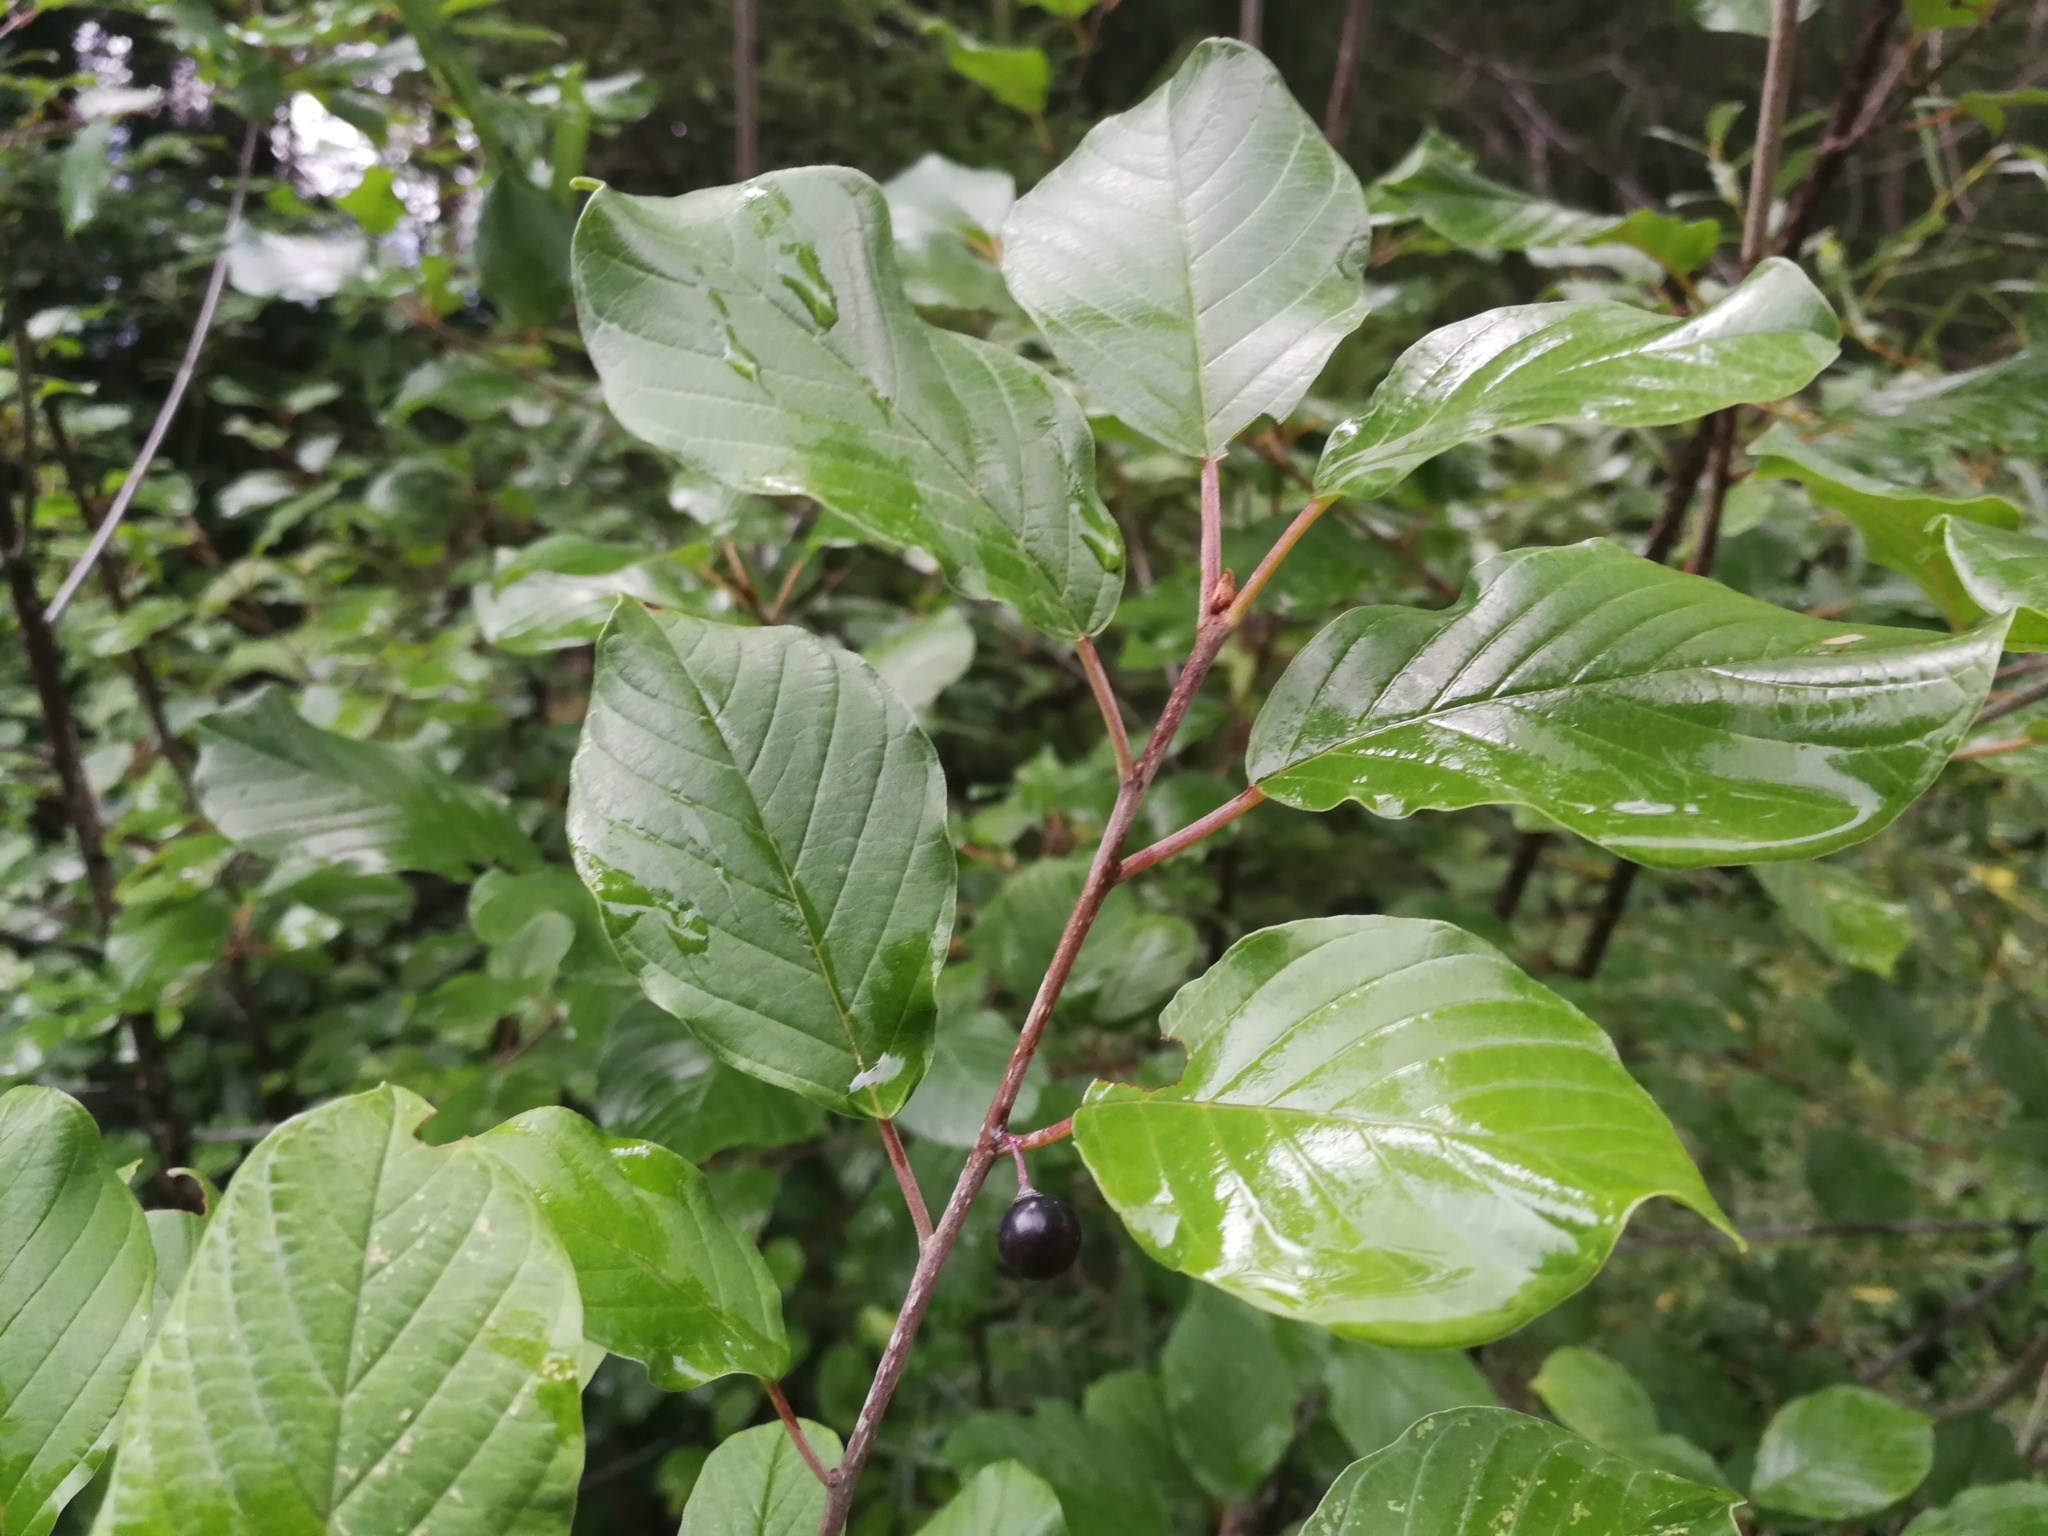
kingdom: Plantae
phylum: Tracheophyta
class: Magnoliopsida
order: Rosales
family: Rhamnaceae
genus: Frangula
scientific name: Frangula alnus
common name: Alder buckthorn
